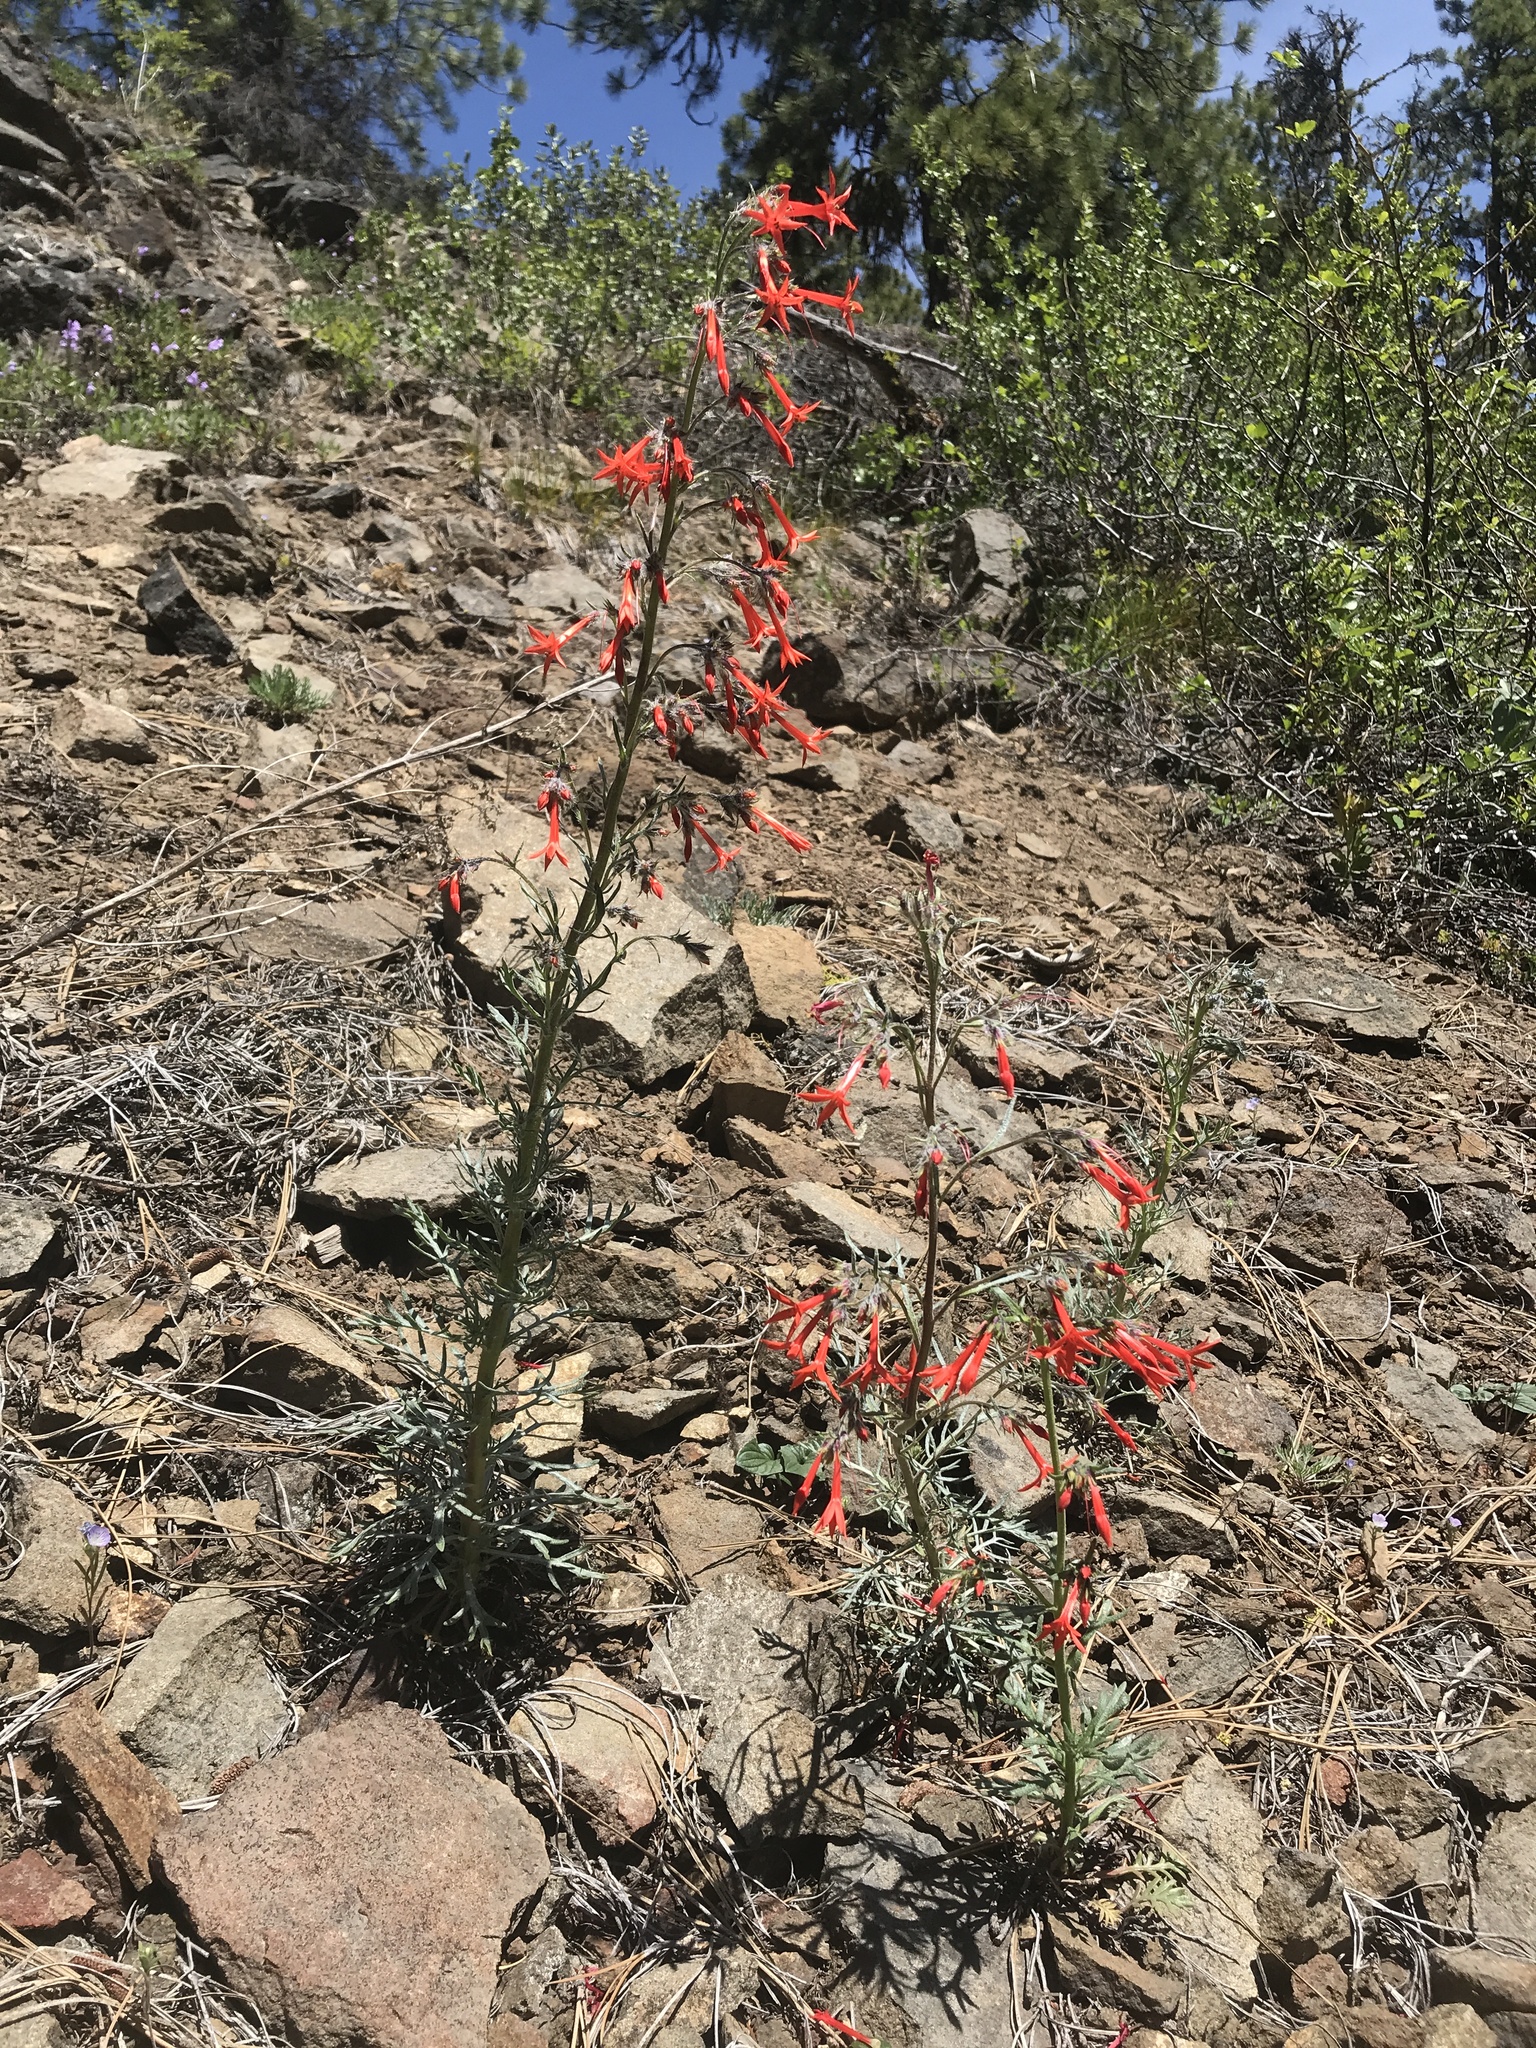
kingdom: Plantae
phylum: Tracheophyta
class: Magnoliopsida
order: Ericales
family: Polemoniaceae
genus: Ipomopsis
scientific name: Ipomopsis aggregata
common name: Scarlet gilia
